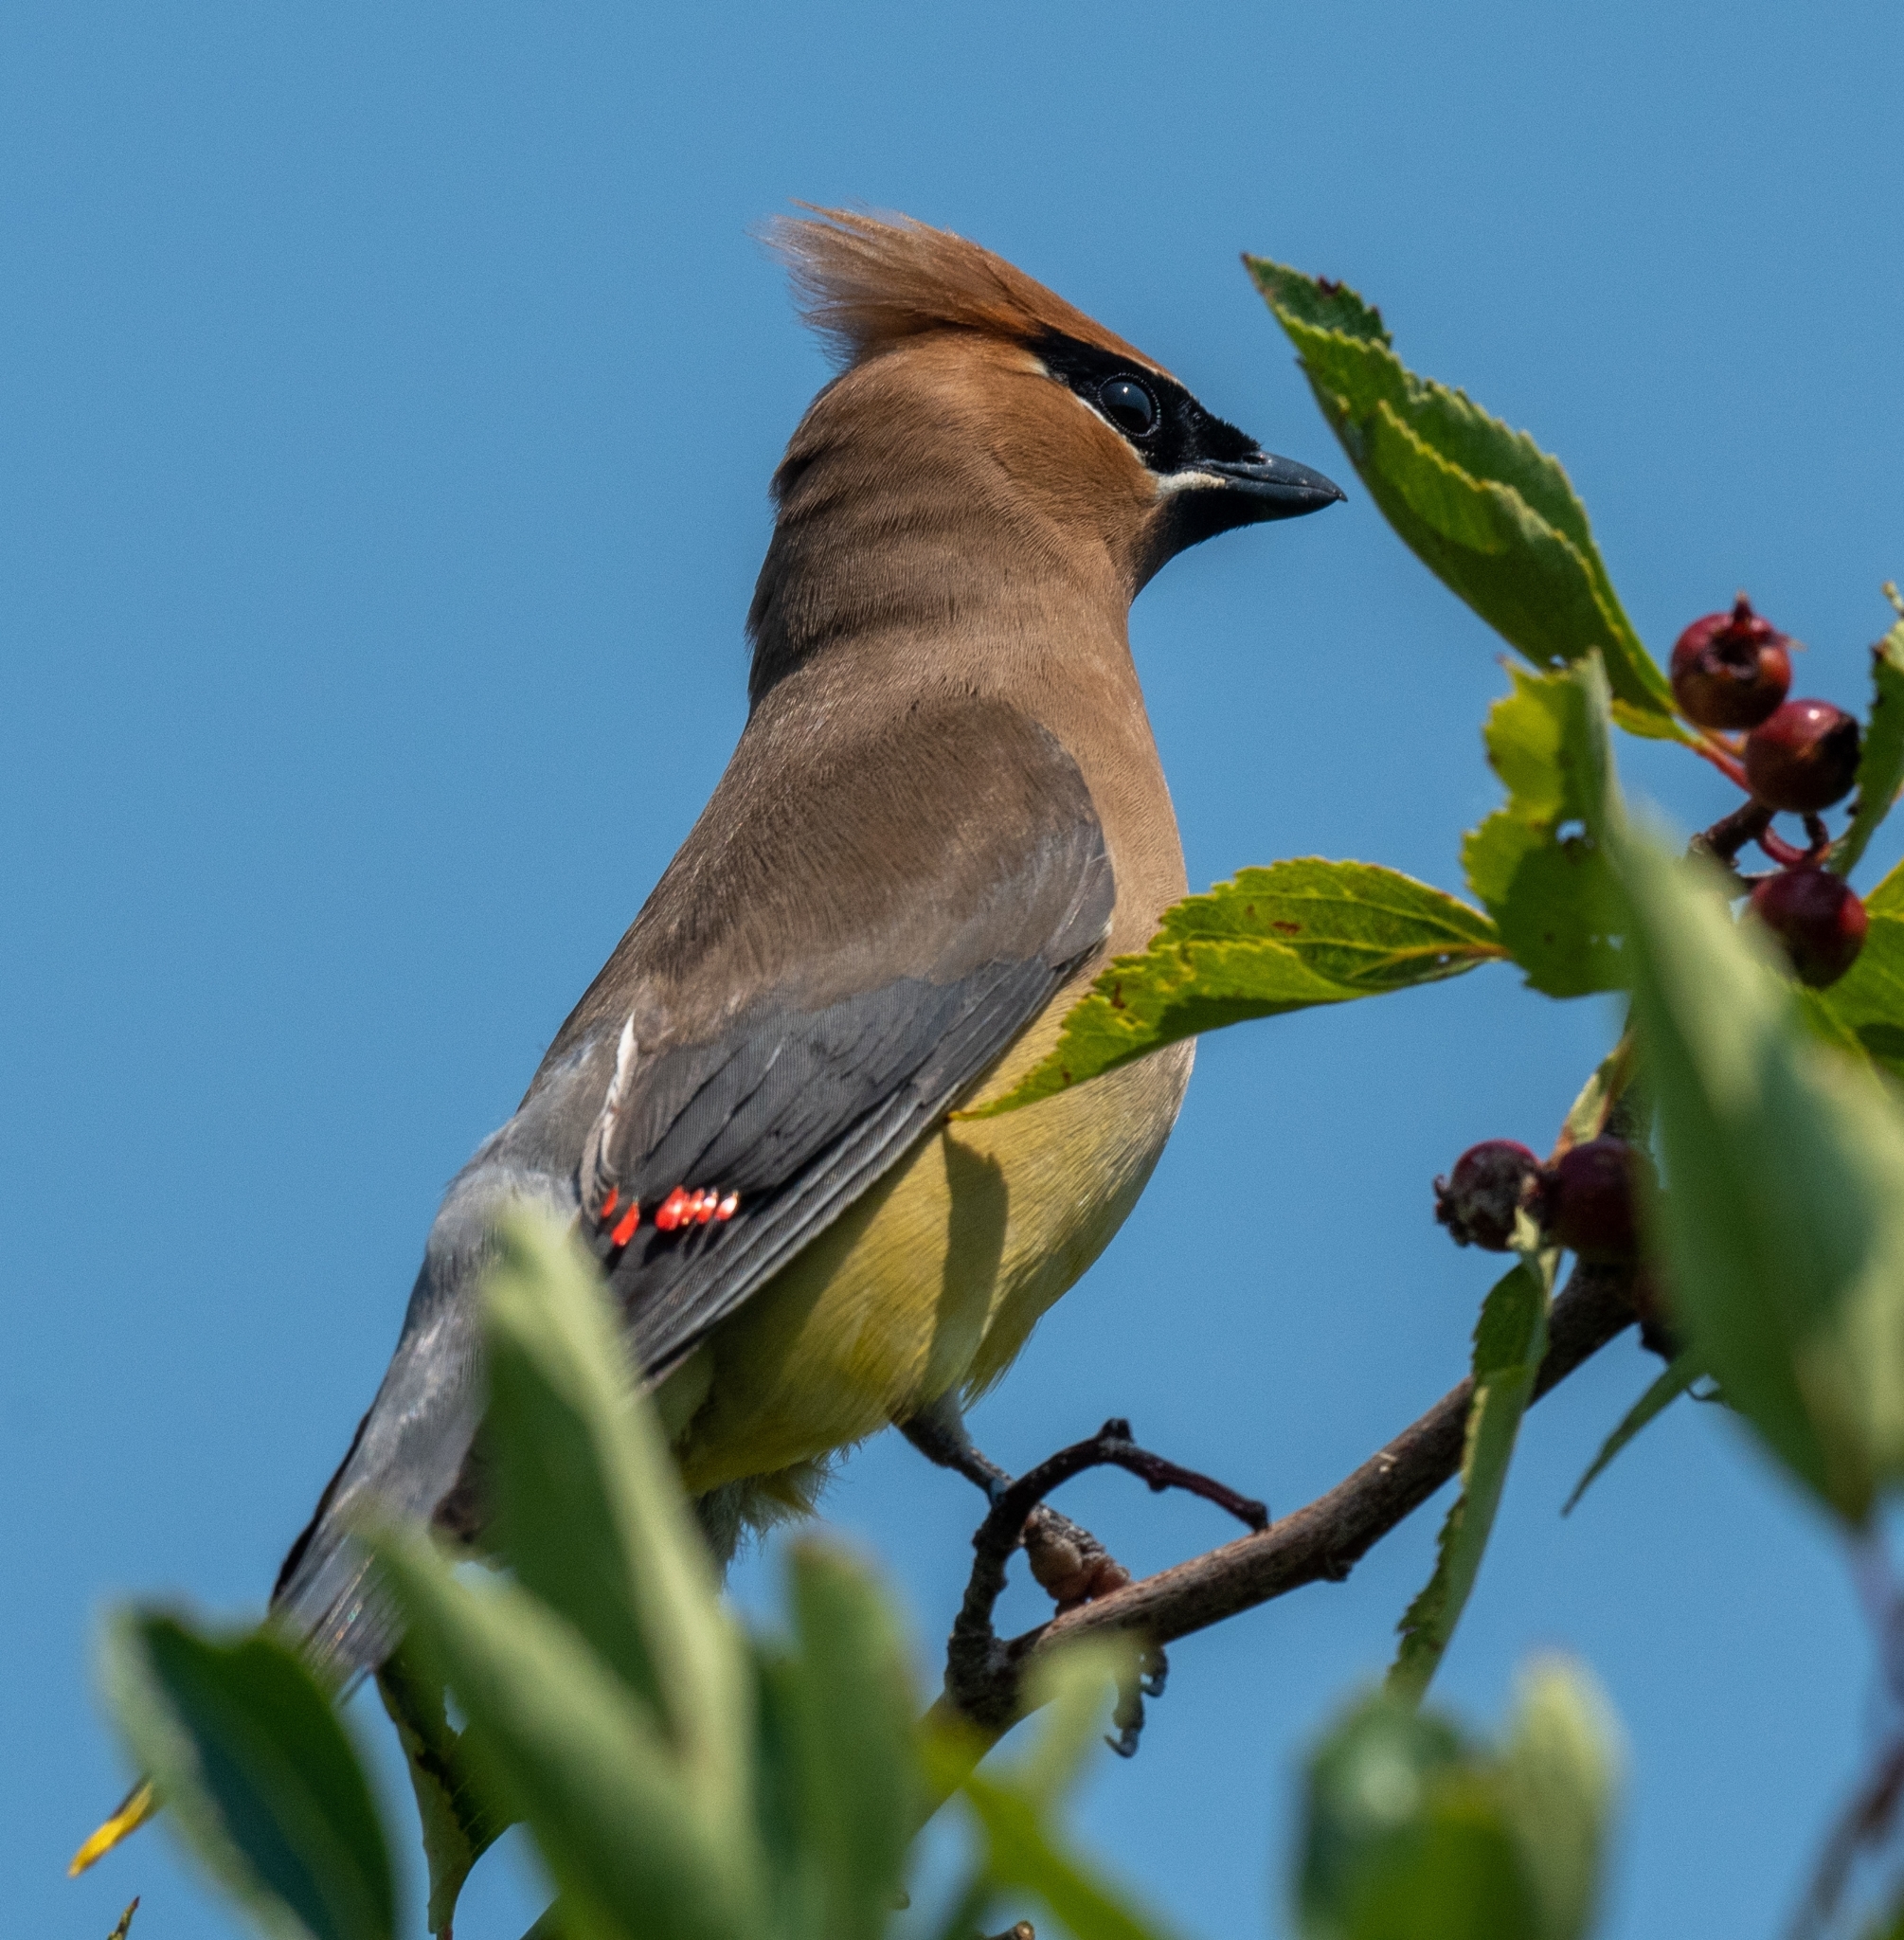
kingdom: Animalia
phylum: Chordata
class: Aves
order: Passeriformes
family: Bombycillidae
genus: Bombycilla
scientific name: Bombycilla cedrorum
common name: Cedar waxwing
